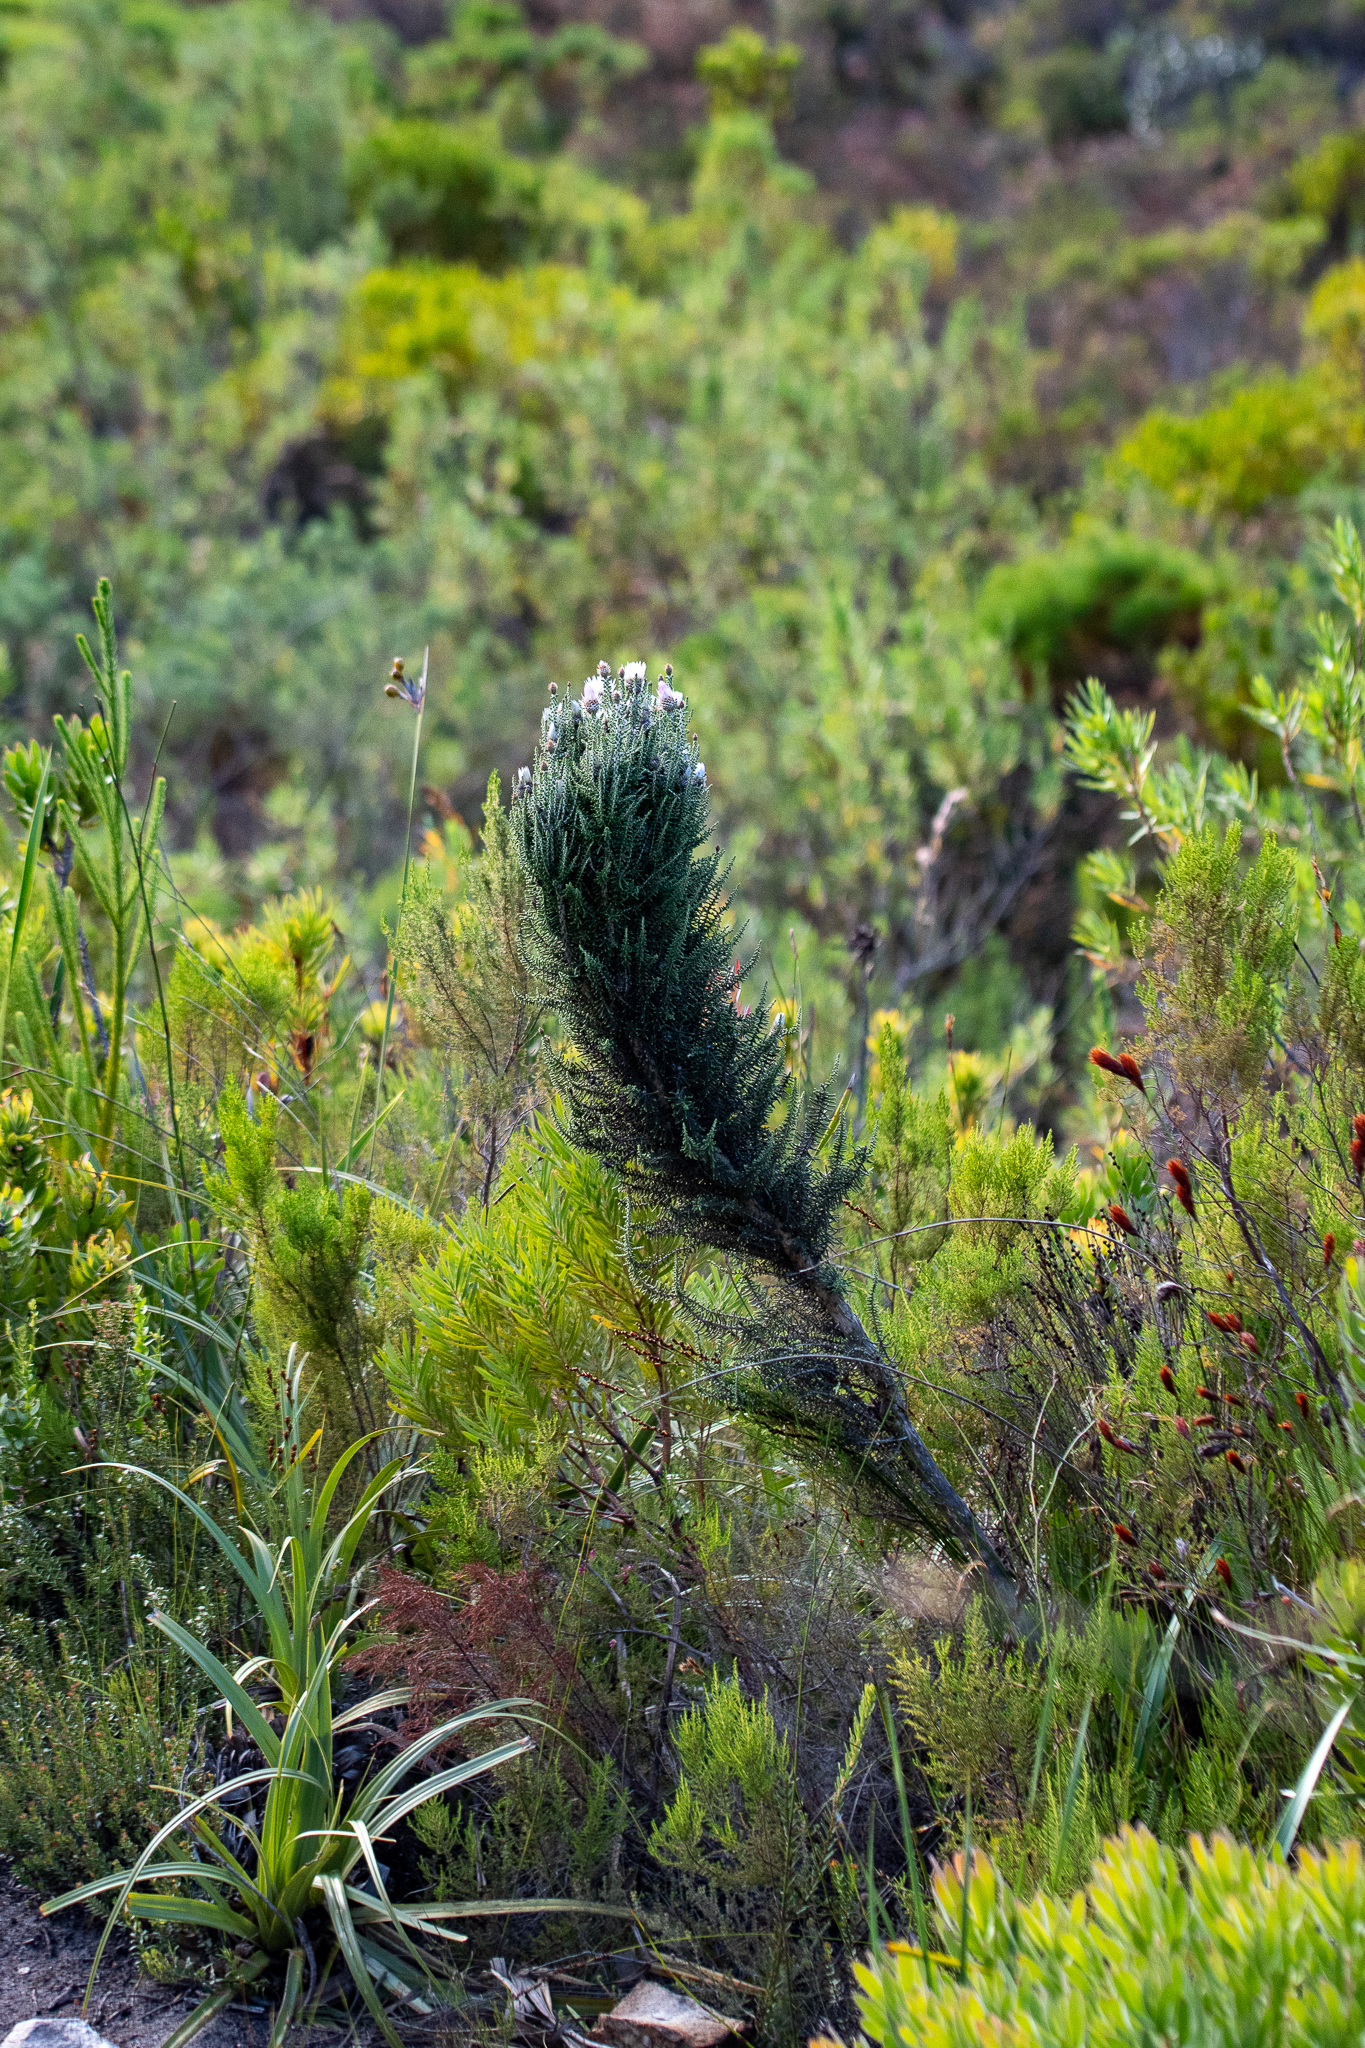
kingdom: Plantae
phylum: Tracheophyta
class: Magnoliopsida
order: Asterales
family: Asteraceae
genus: Phaenocoma
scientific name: Phaenocoma prolifera
